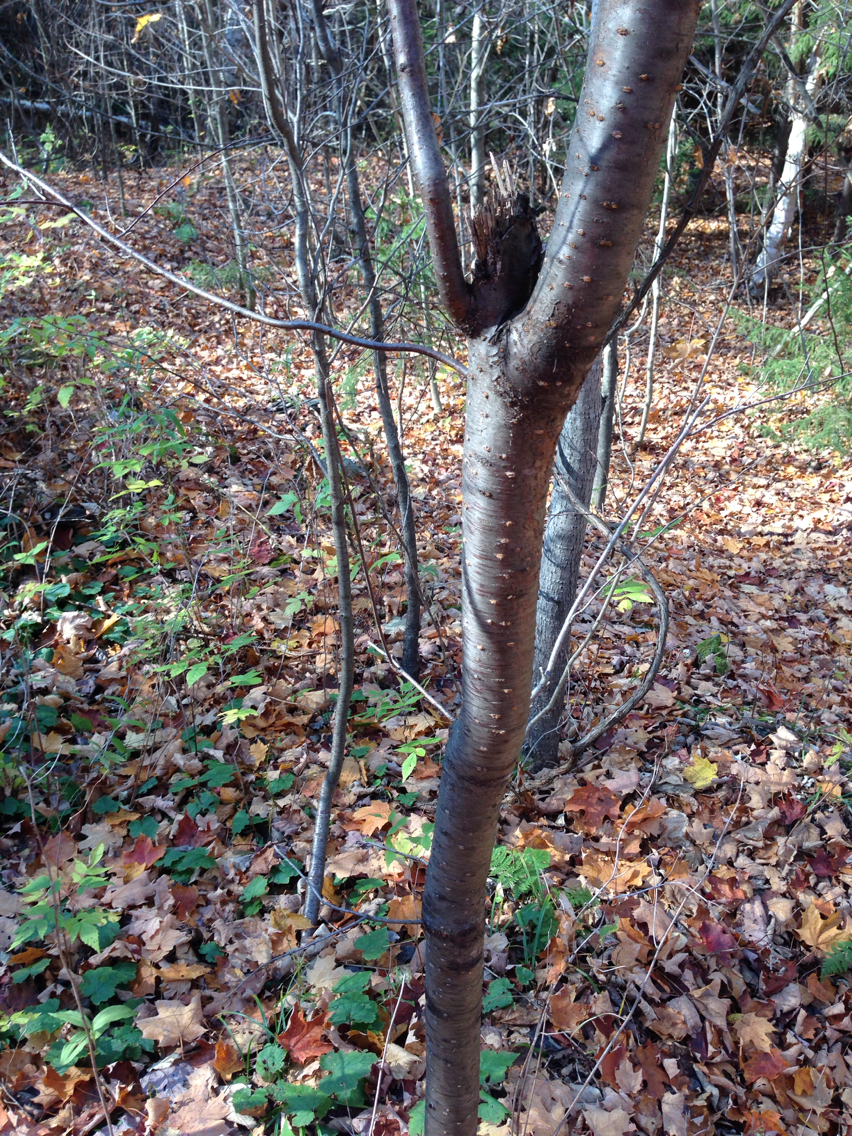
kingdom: Plantae
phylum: Tracheophyta
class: Magnoliopsida
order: Rosales
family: Rosaceae
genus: Prunus
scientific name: Prunus pensylvanica
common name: Pin cherry
